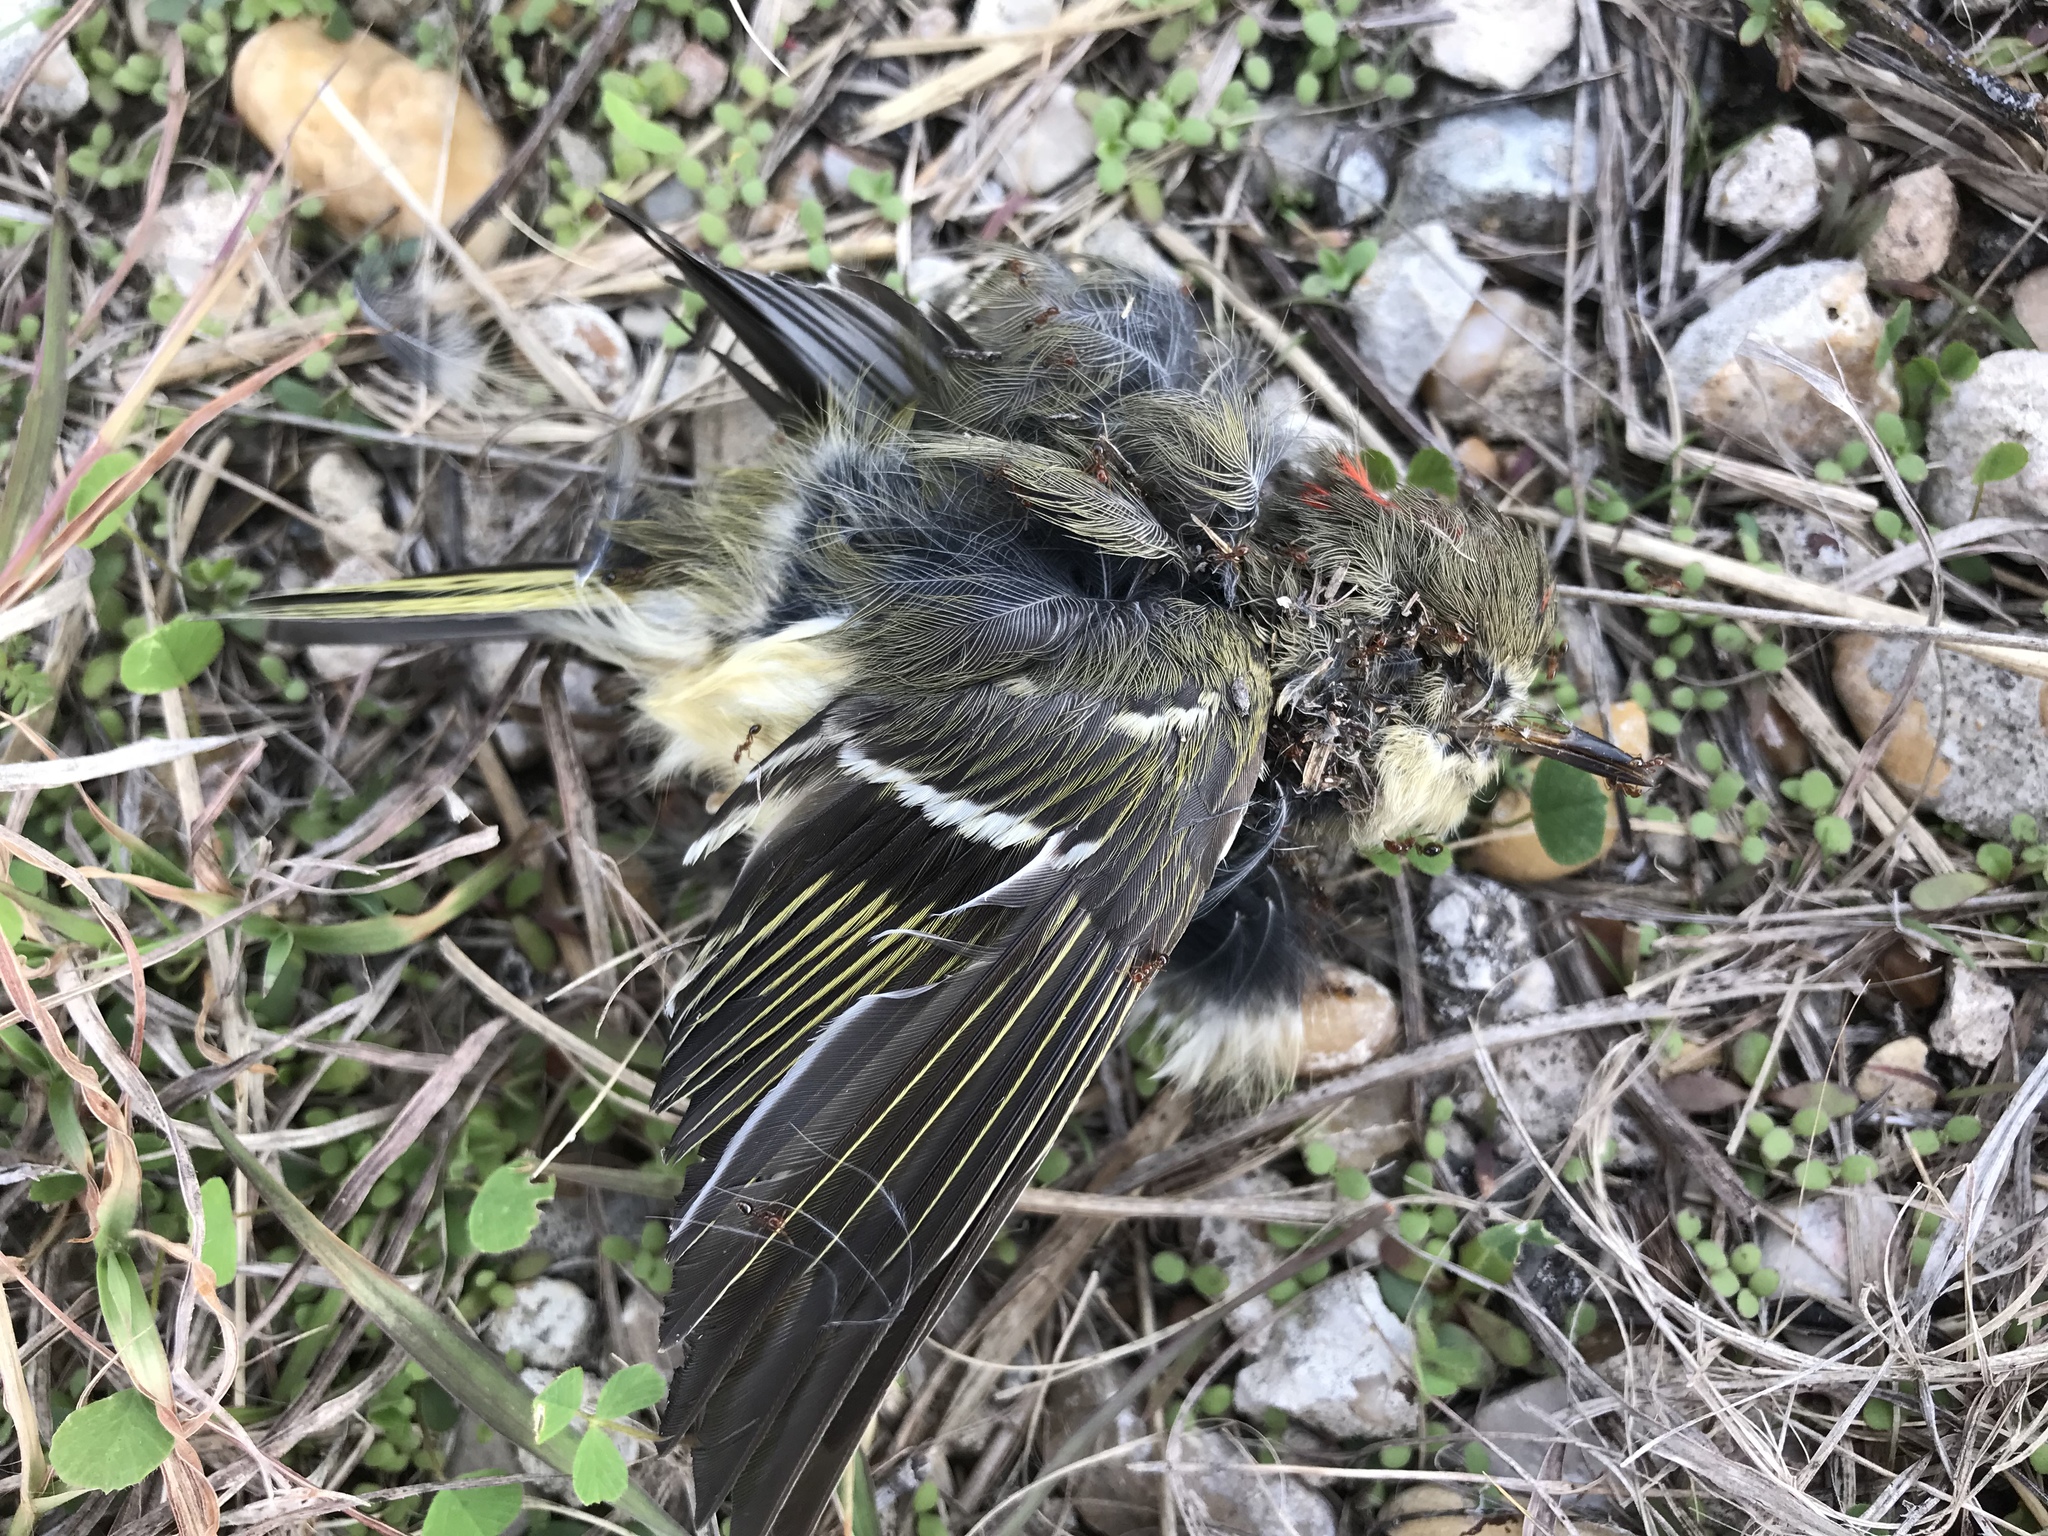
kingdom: Animalia
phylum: Chordata
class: Aves
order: Passeriformes
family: Regulidae
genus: Regulus
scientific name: Regulus calendula
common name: Ruby-crowned kinglet
